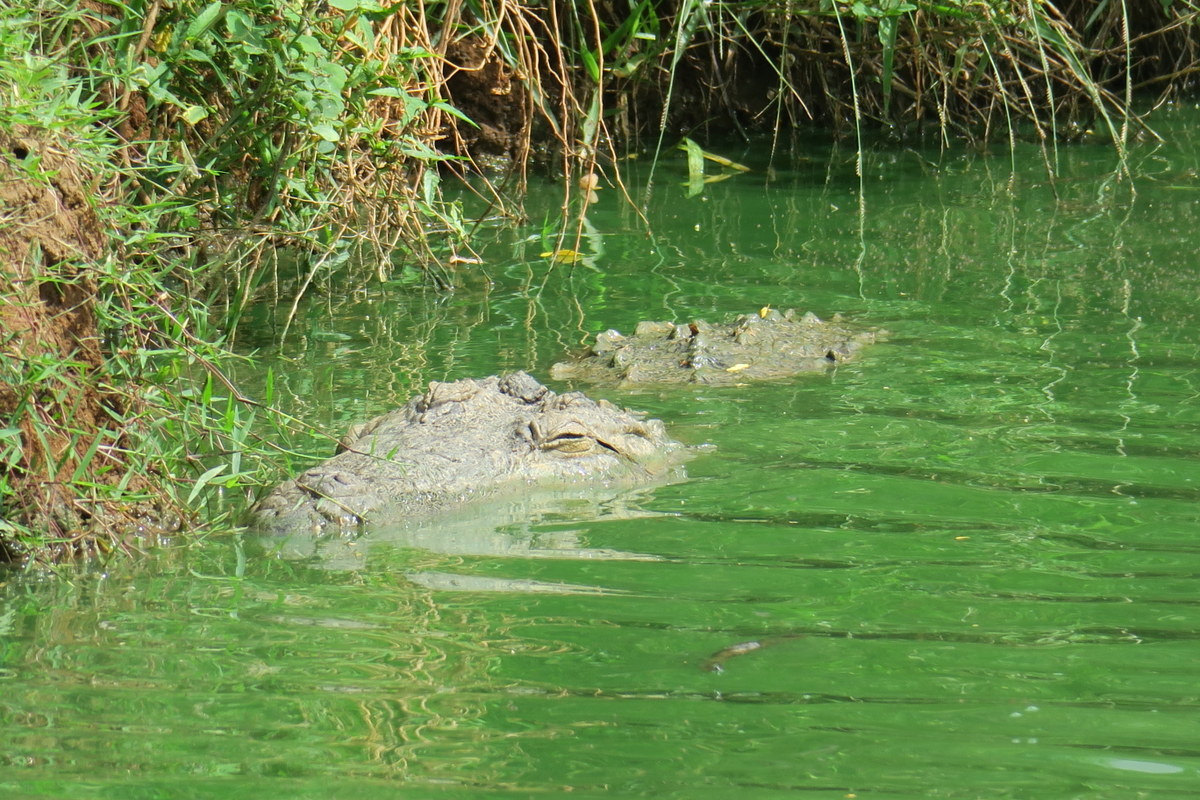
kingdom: Animalia
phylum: Chordata
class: Crocodylia
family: Crocodylidae
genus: Crocodylus
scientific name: Crocodylus palustris
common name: Mugger crocodile
